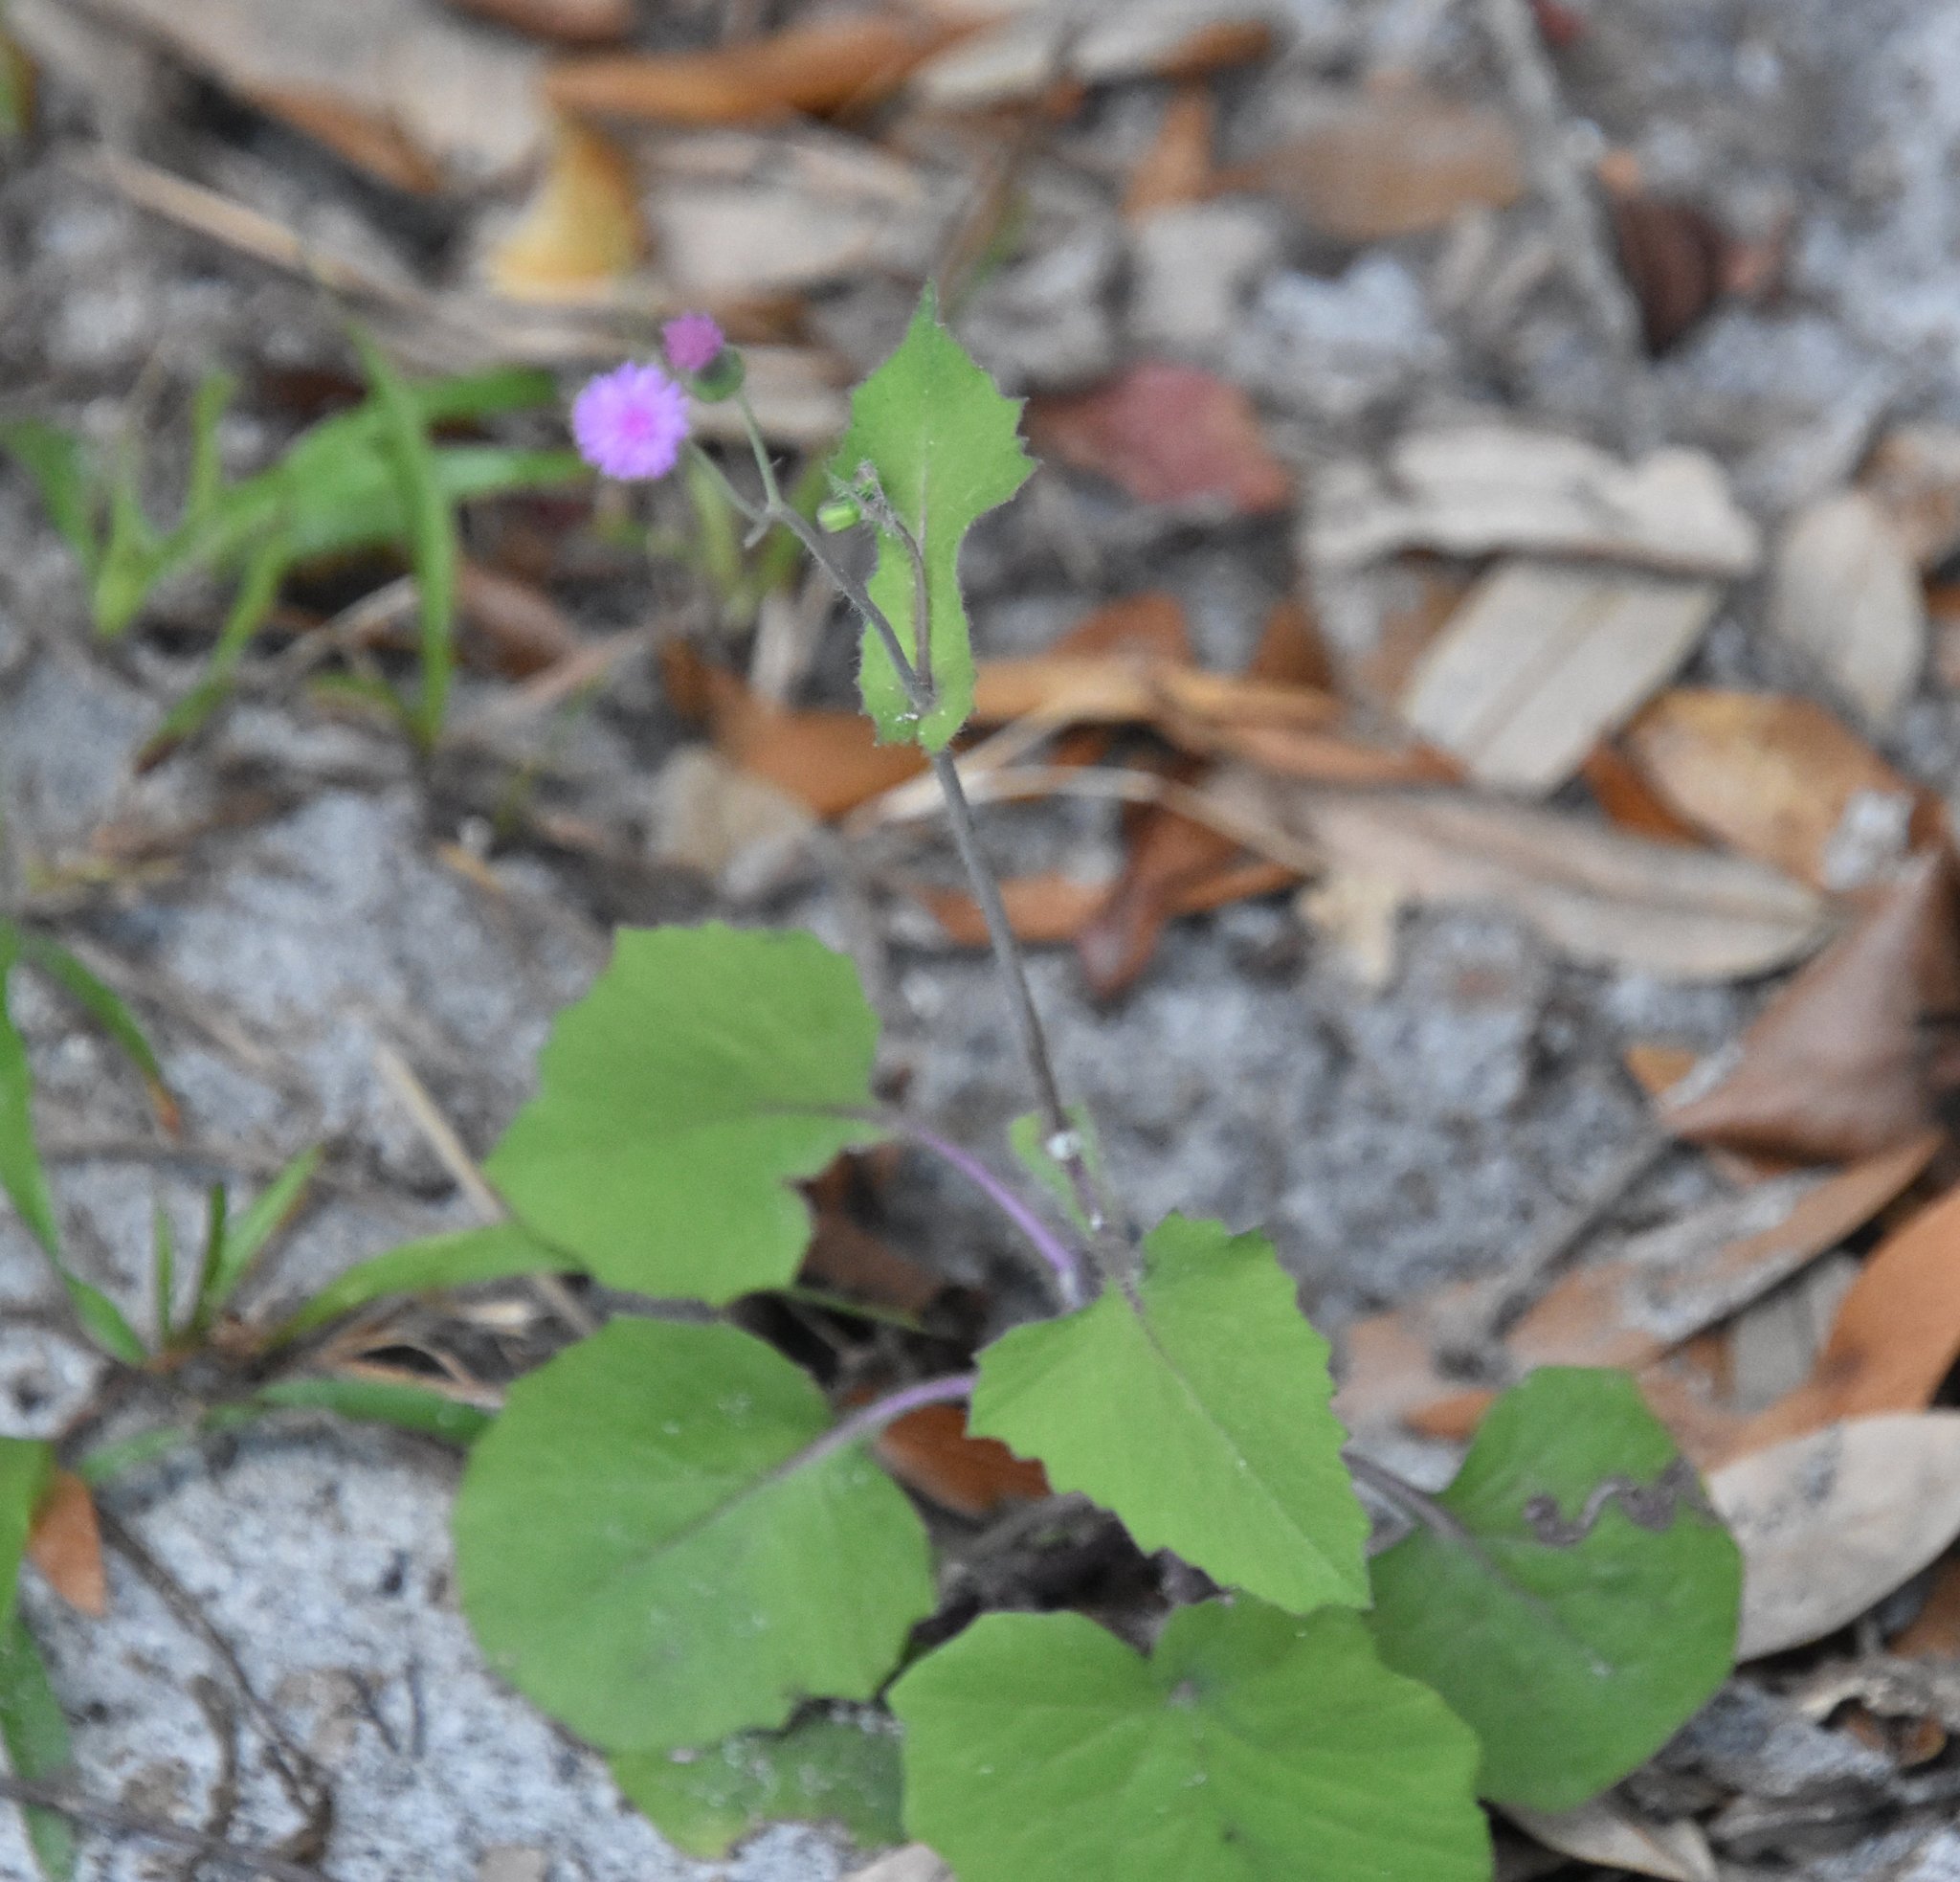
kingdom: Plantae
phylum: Tracheophyta
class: Magnoliopsida
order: Asterales
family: Asteraceae
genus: Emilia
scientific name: Emilia sonchifolia
